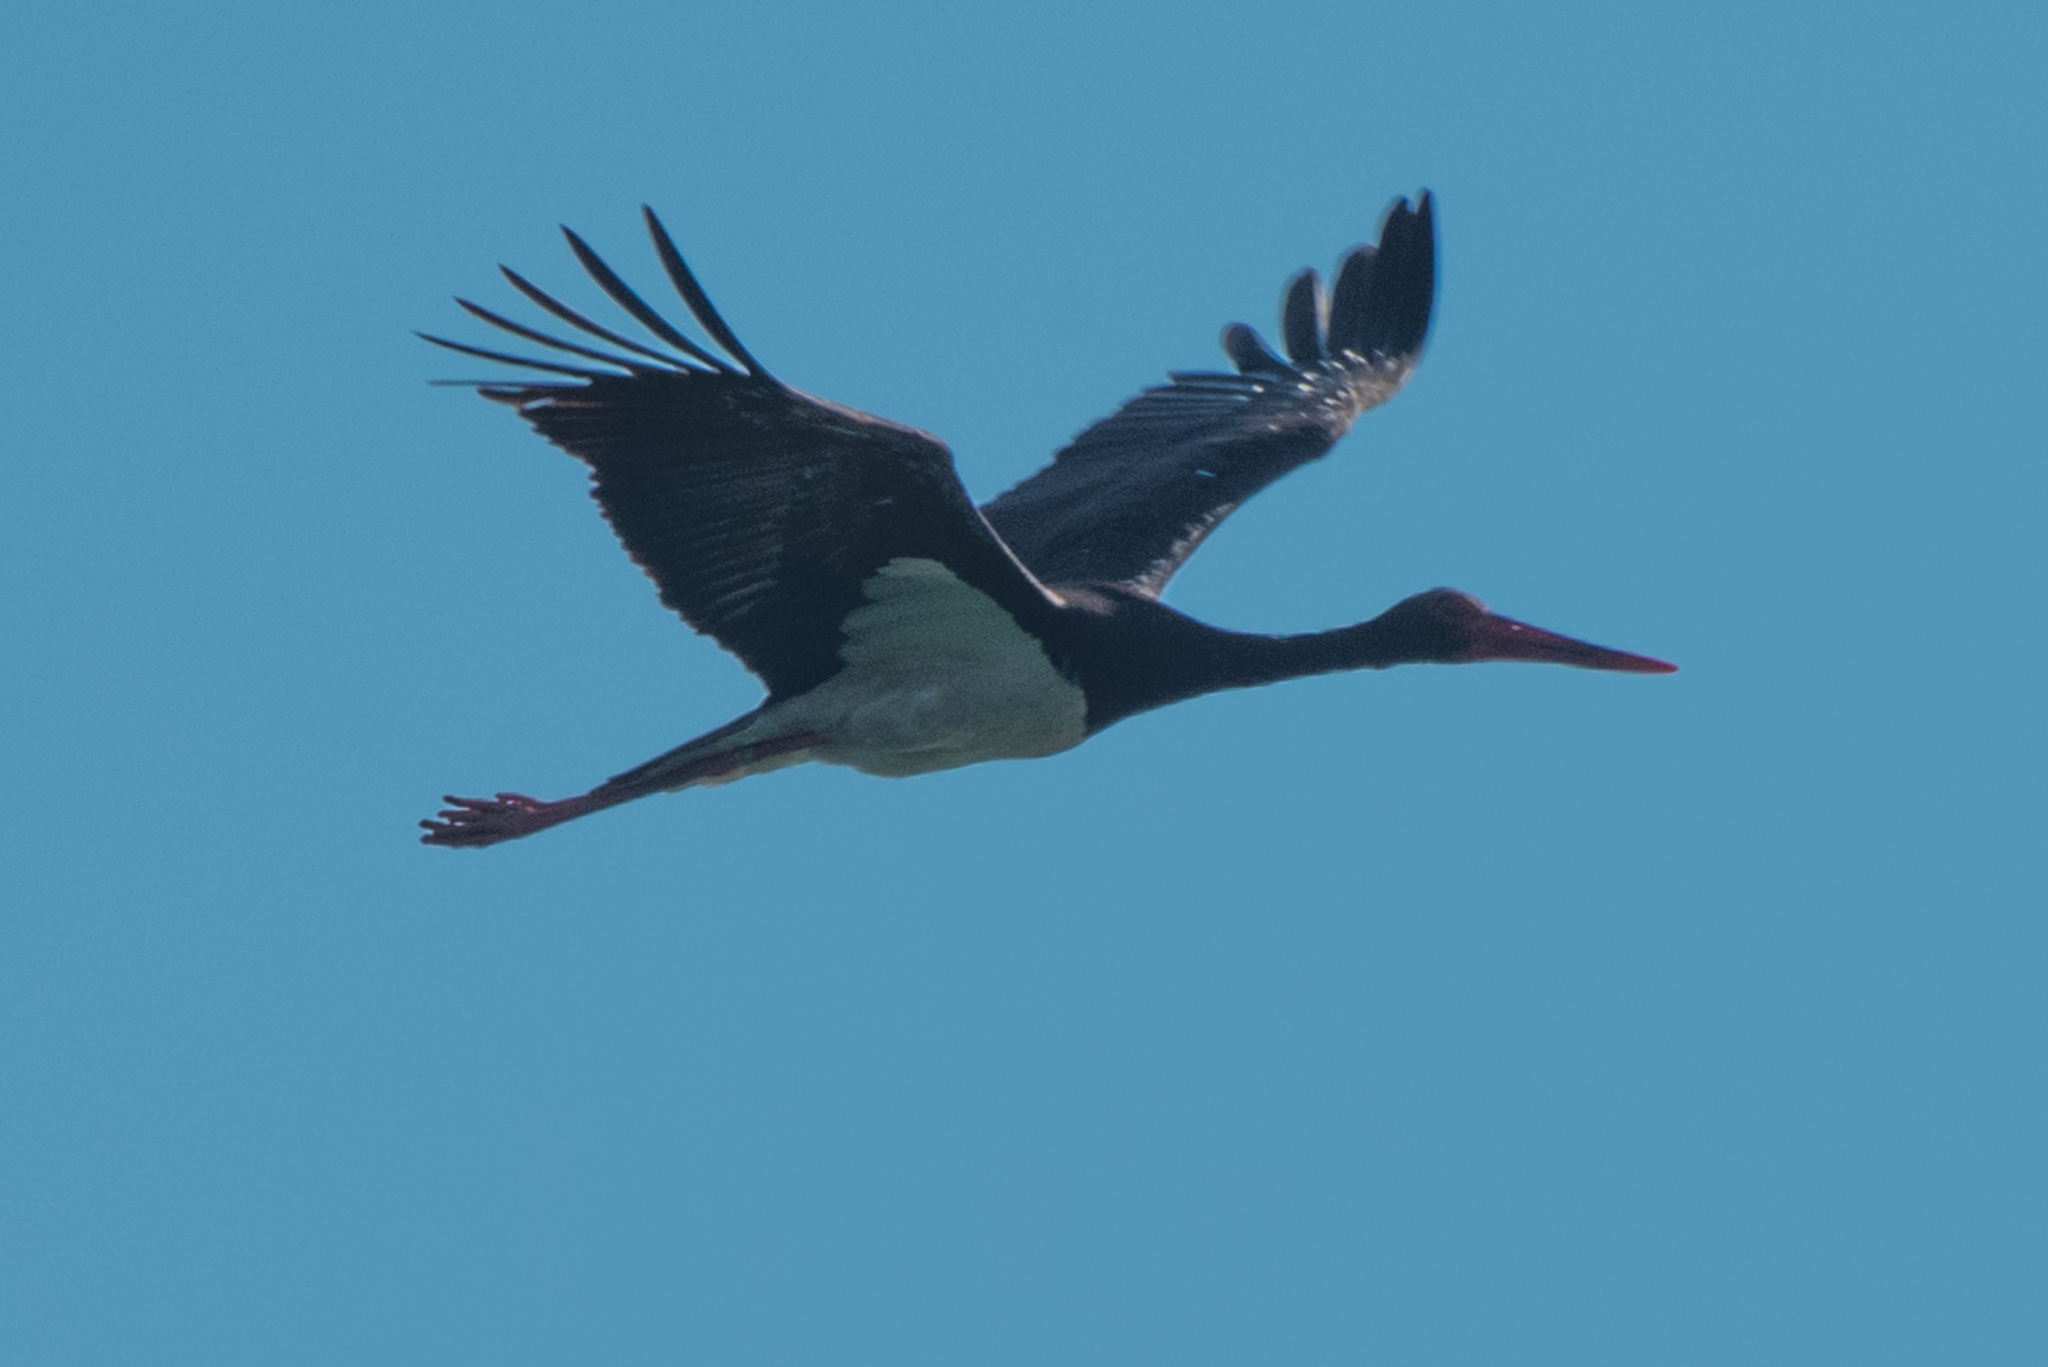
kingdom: Animalia
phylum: Chordata
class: Aves
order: Ciconiiformes
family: Ciconiidae
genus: Ciconia
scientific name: Ciconia nigra
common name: Black stork
